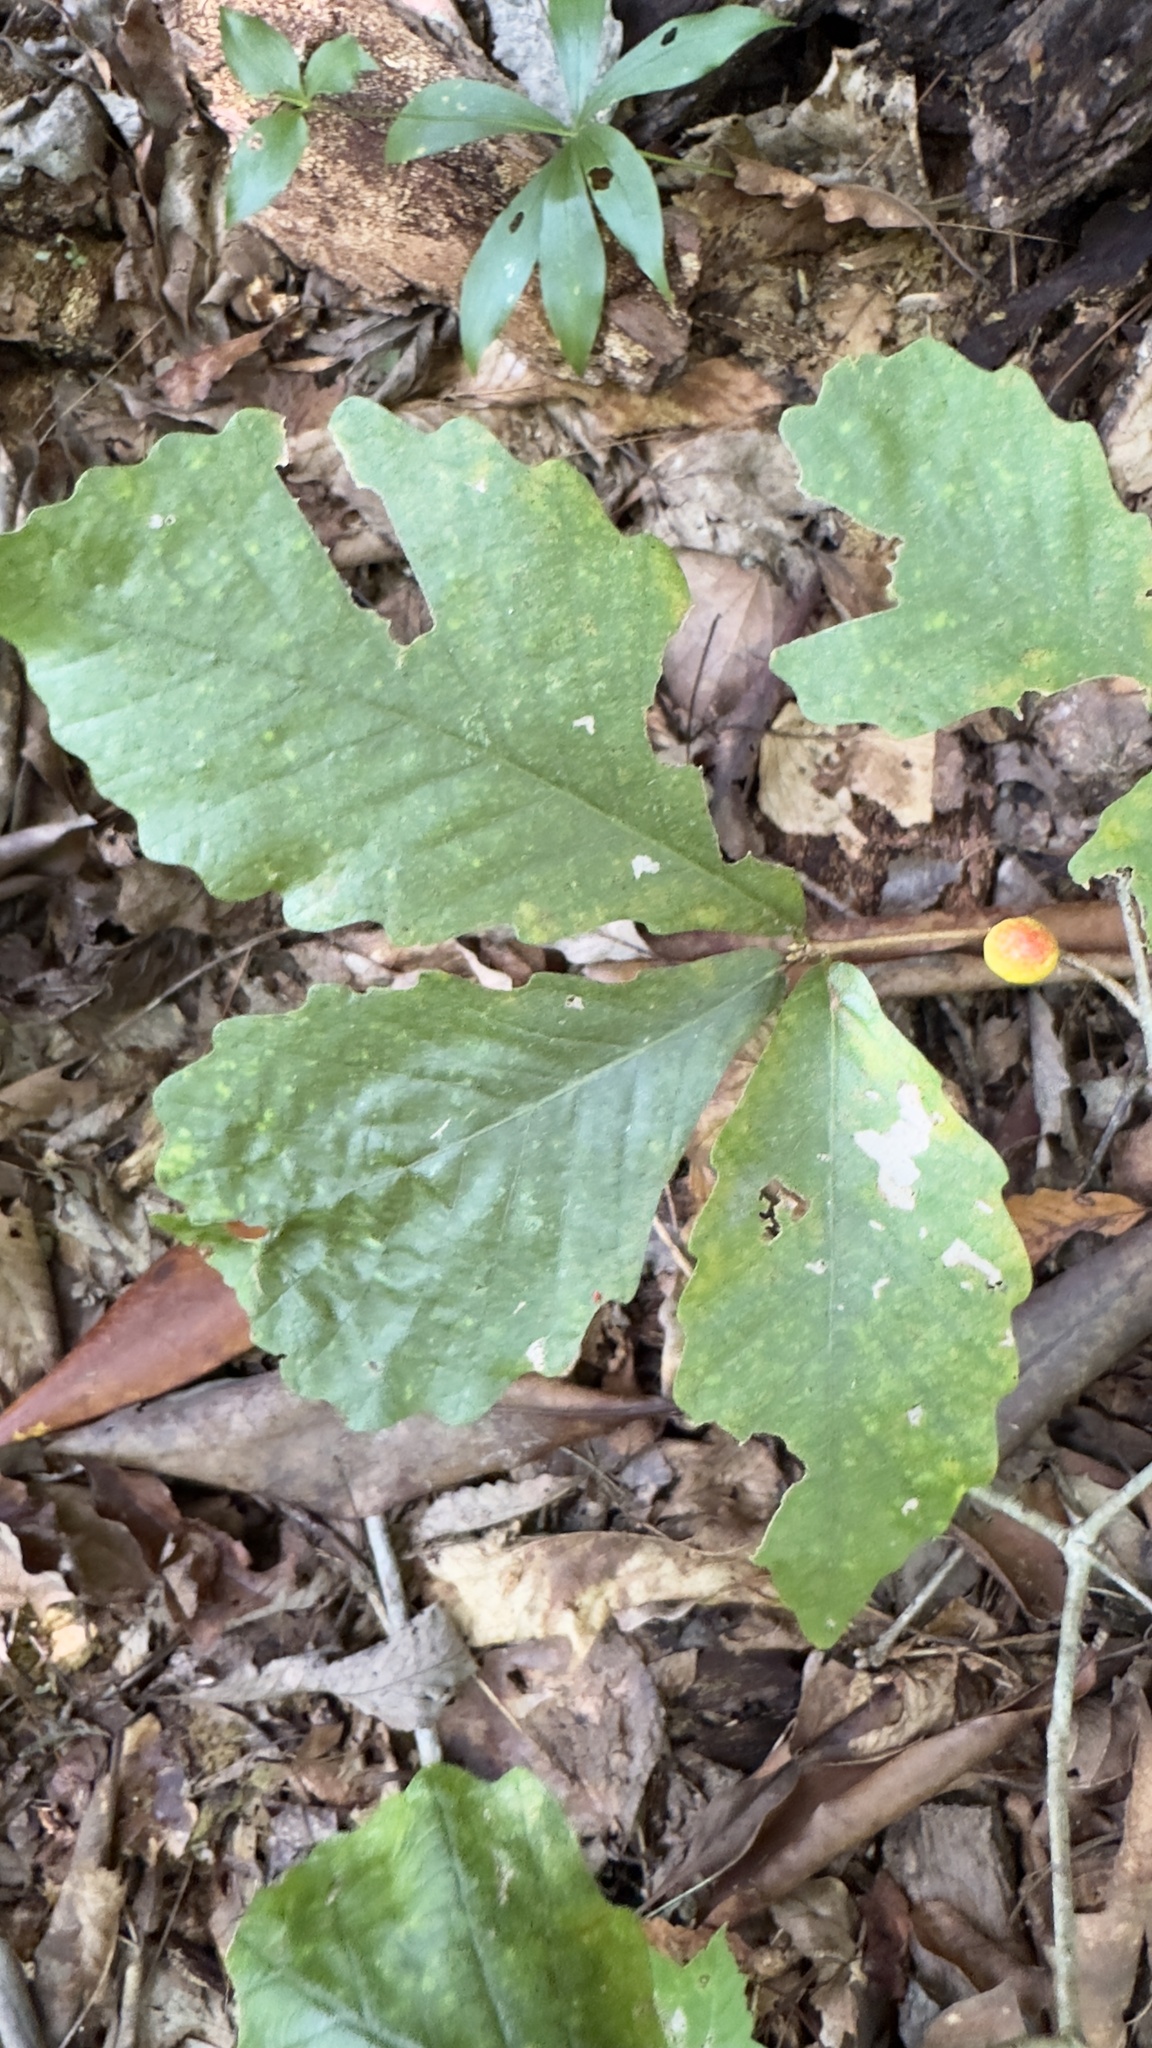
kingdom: Animalia
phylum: Arthropoda
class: Insecta
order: Hymenoptera
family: Cynipidae
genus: Disholcaspis
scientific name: Disholcaspis quercusglobulus
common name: Round bullet gall wasp
